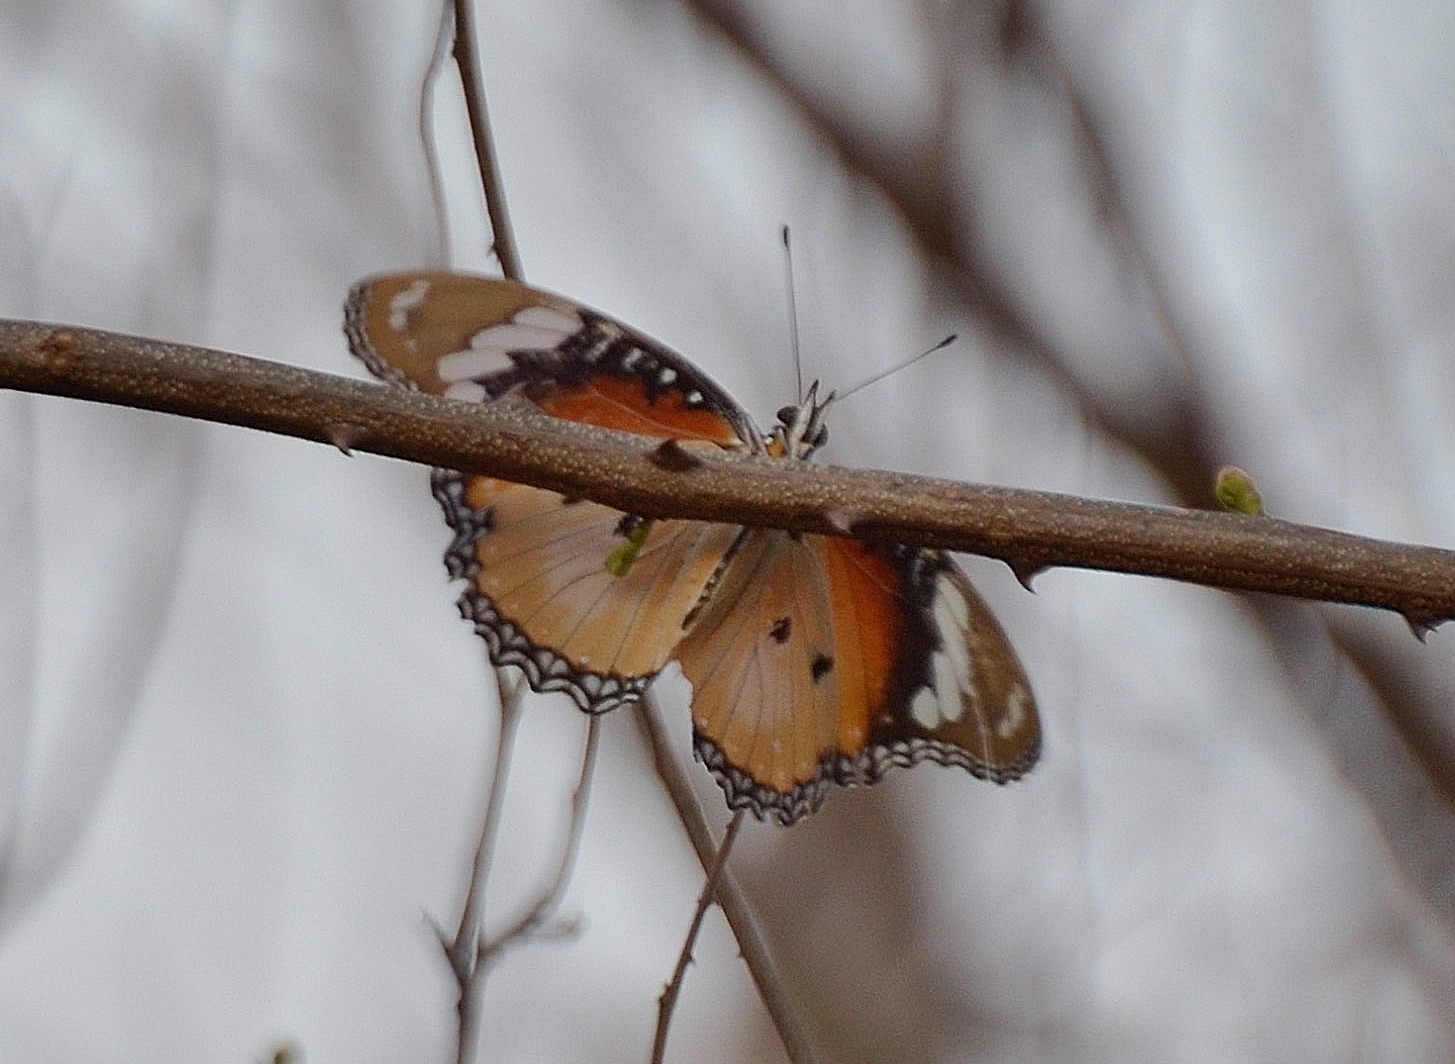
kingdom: Animalia
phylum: Arthropoda
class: Insecta
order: Lepidoptera
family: Nymphalidae
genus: Hypolimnas
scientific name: Hypolimnas misippus
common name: False plain tiger
